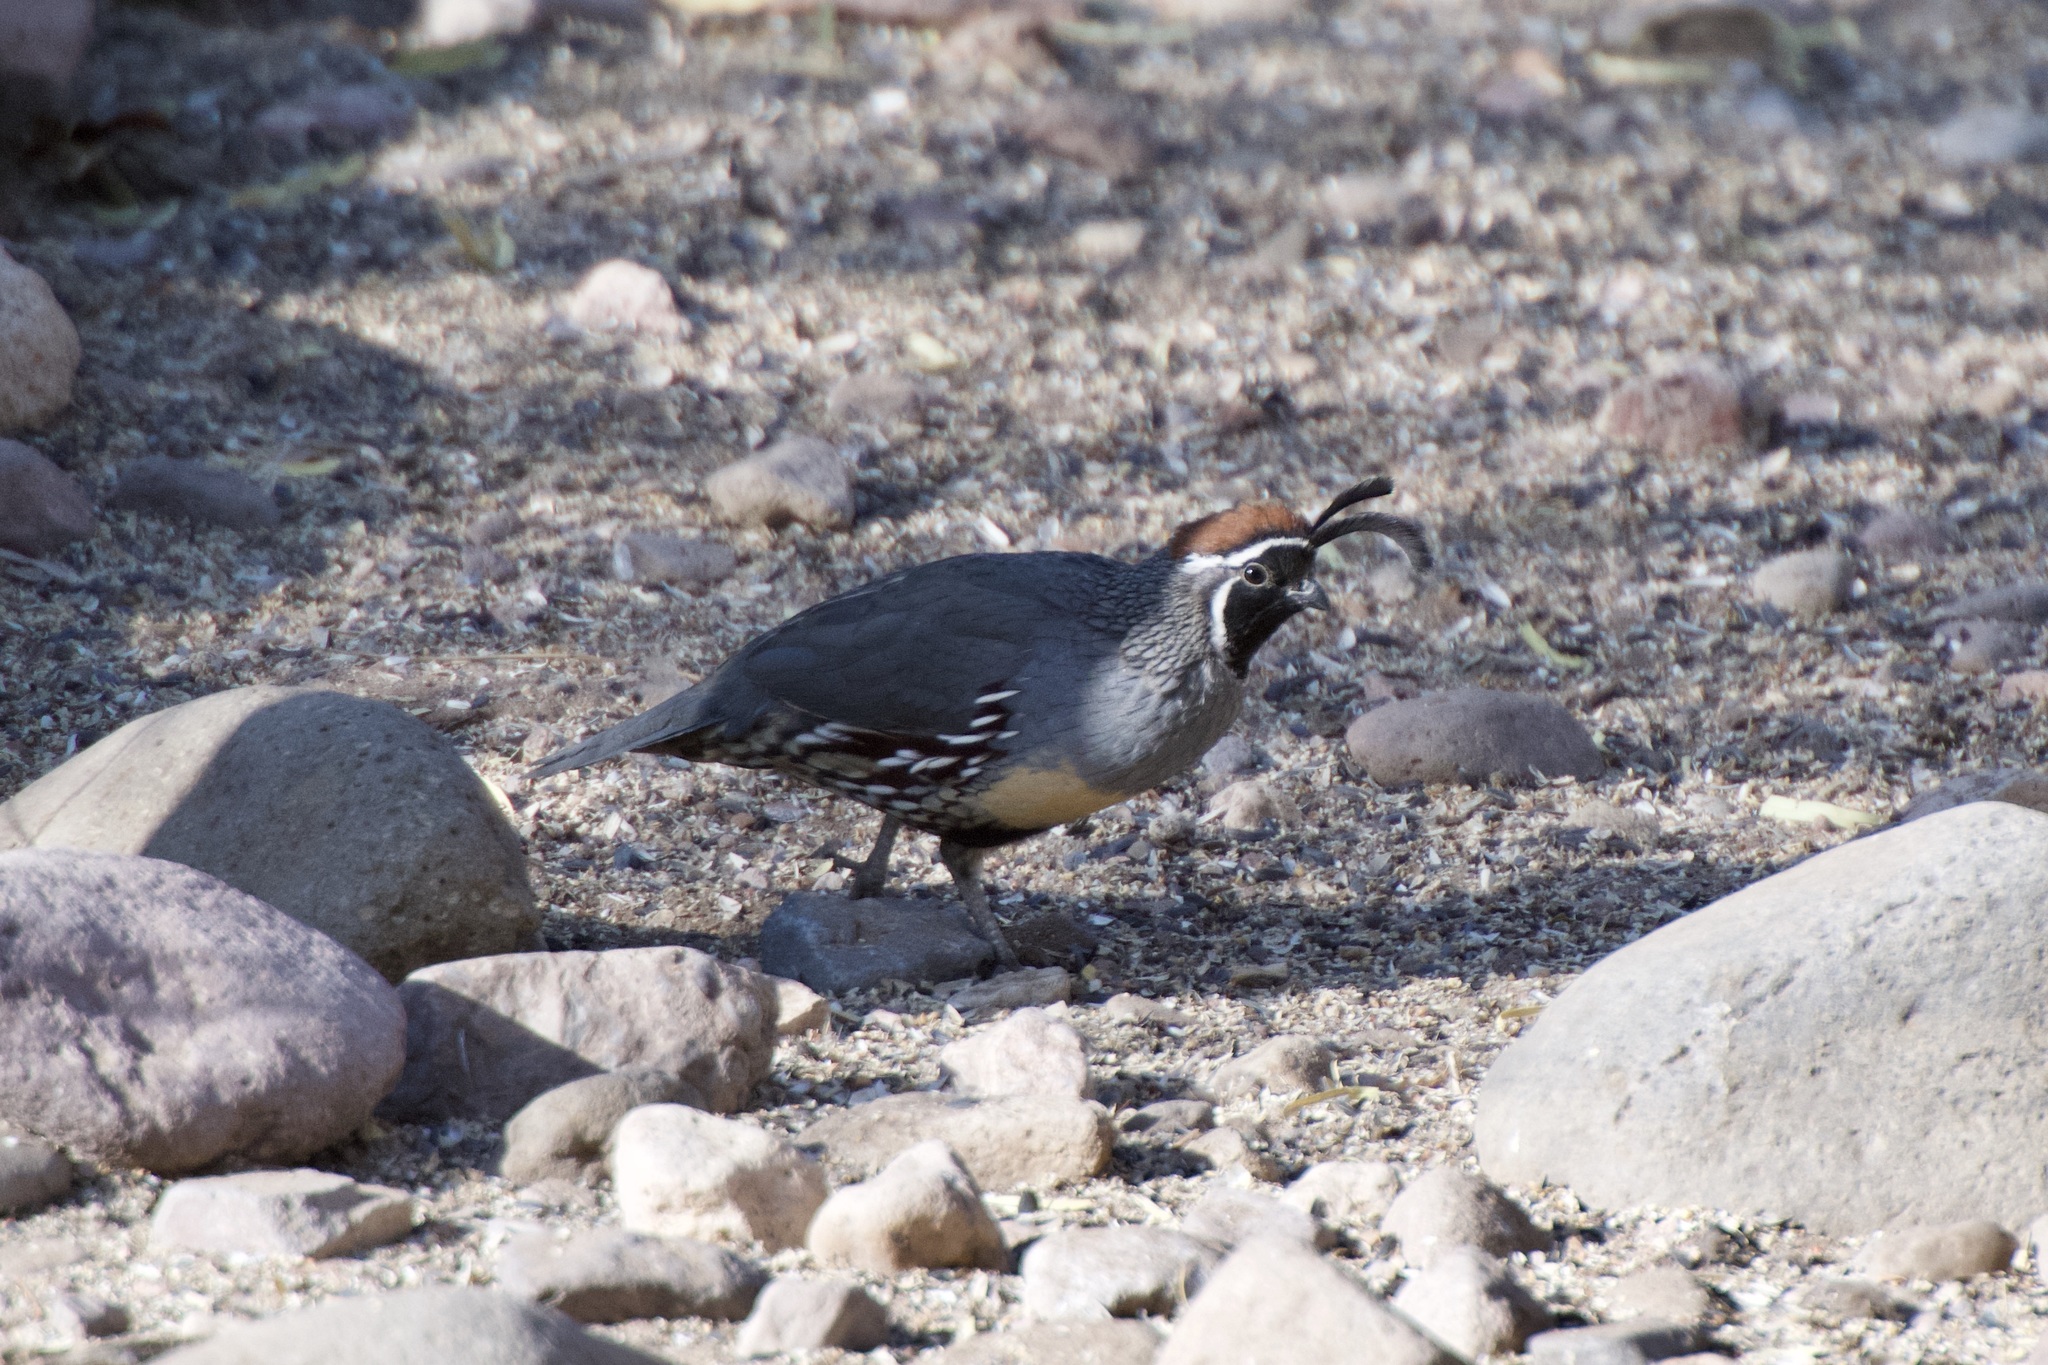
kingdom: Animalia
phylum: Chordata
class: Aves
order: Galliformes
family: Odontophoridae
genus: Callipepla
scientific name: Callipepla gambelii
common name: Gambel's quail
